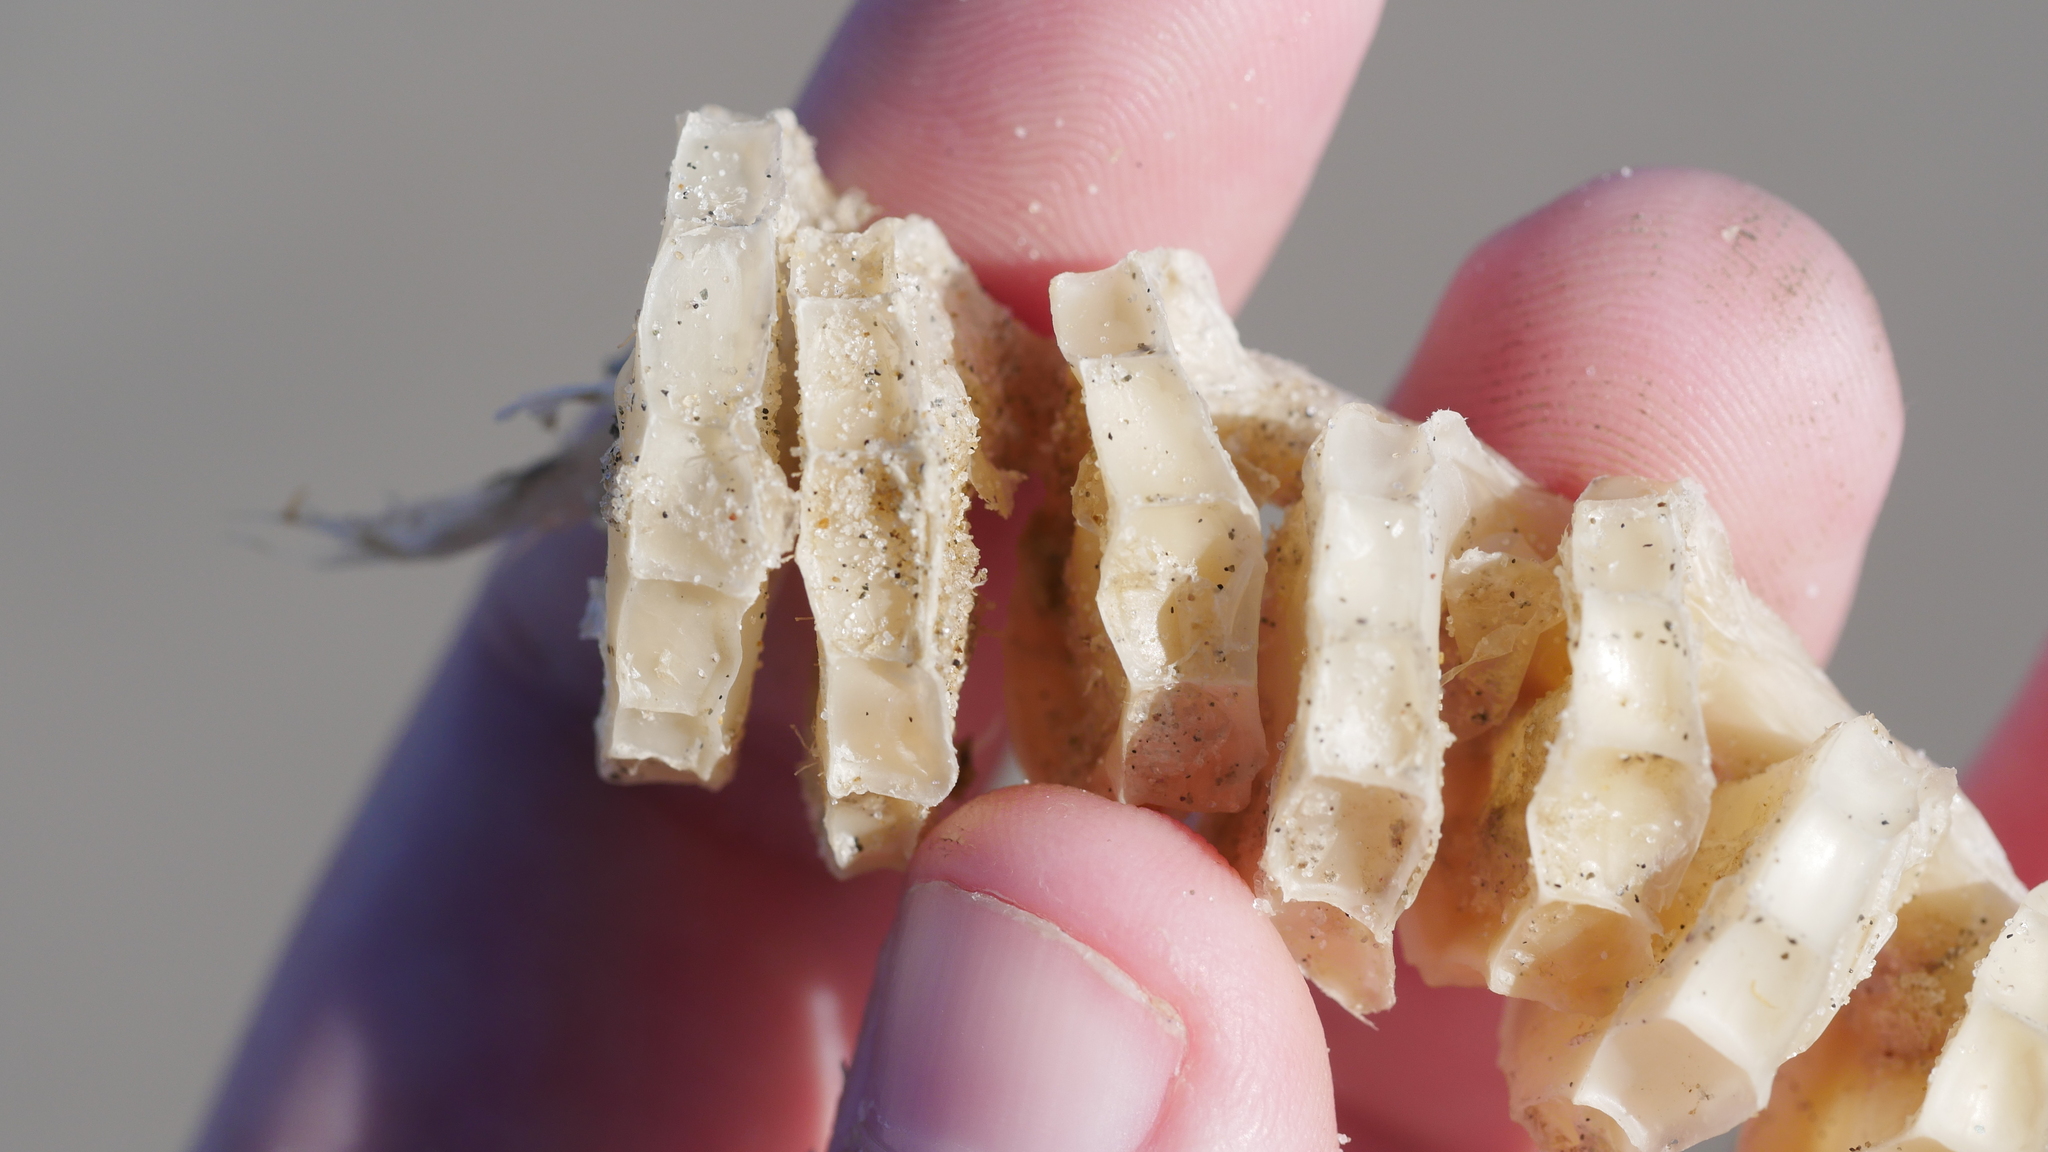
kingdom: Animalia
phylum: Mollusca
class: Gastropoda
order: Neogastropoda
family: Busyconidae
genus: Busycon
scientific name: Busycon carica
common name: Knobbed whelk
